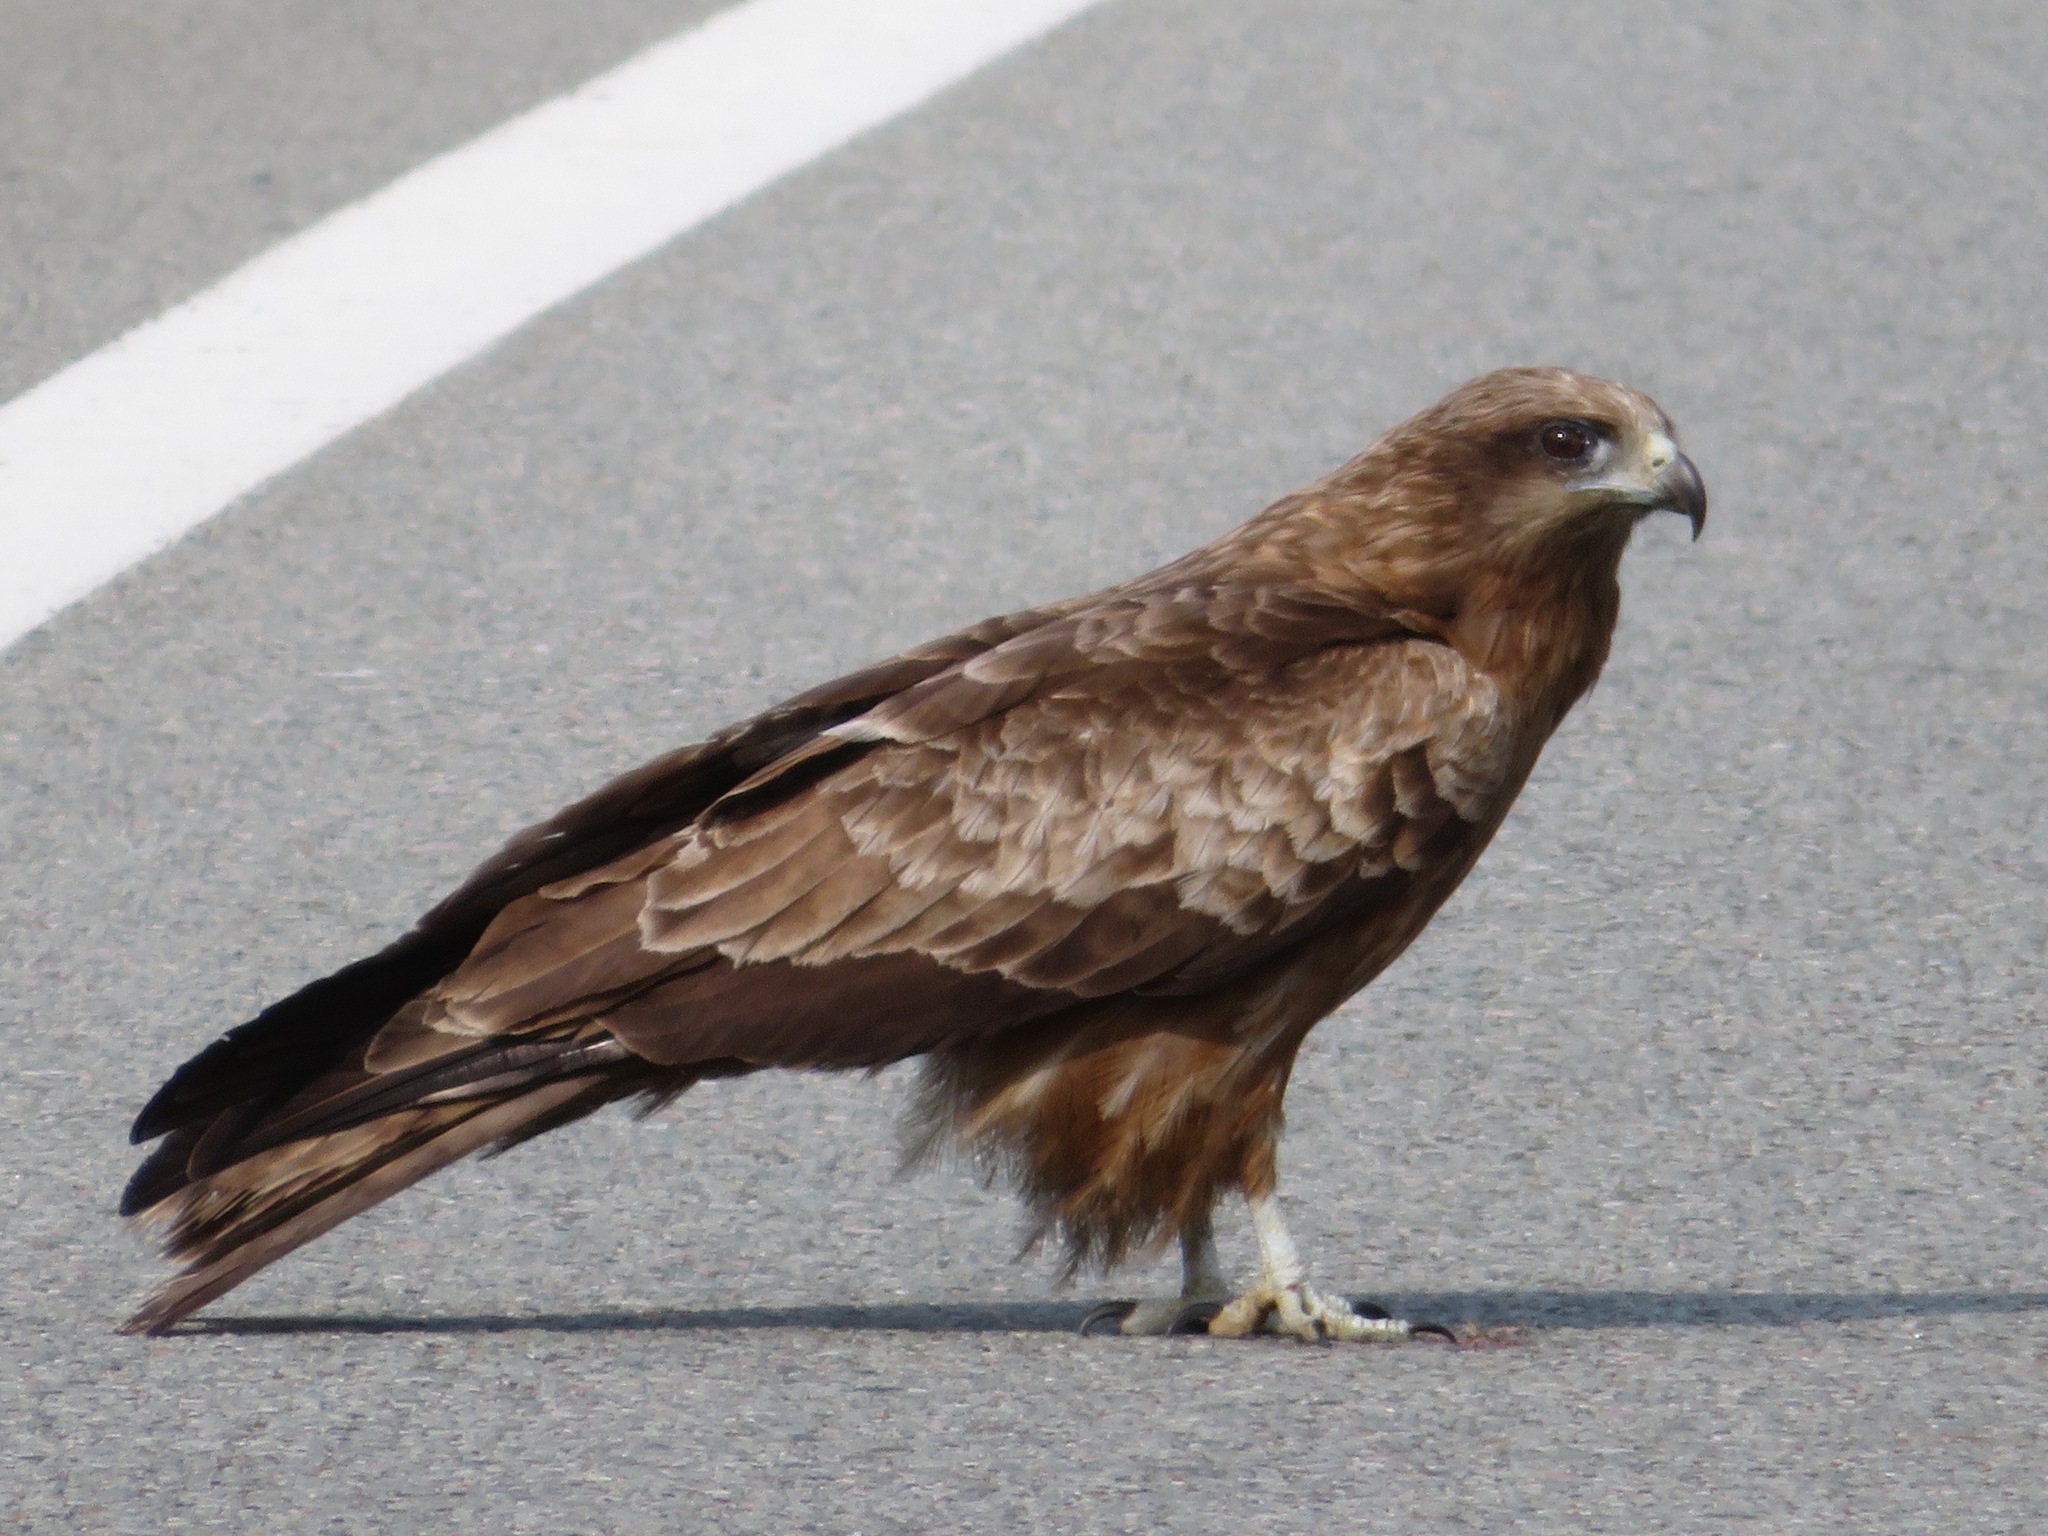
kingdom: Animalia
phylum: Chordata
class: Aves
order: Accipitriformes
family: Accipitridae
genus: Milvus
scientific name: Milvus migrans
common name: Black kite
